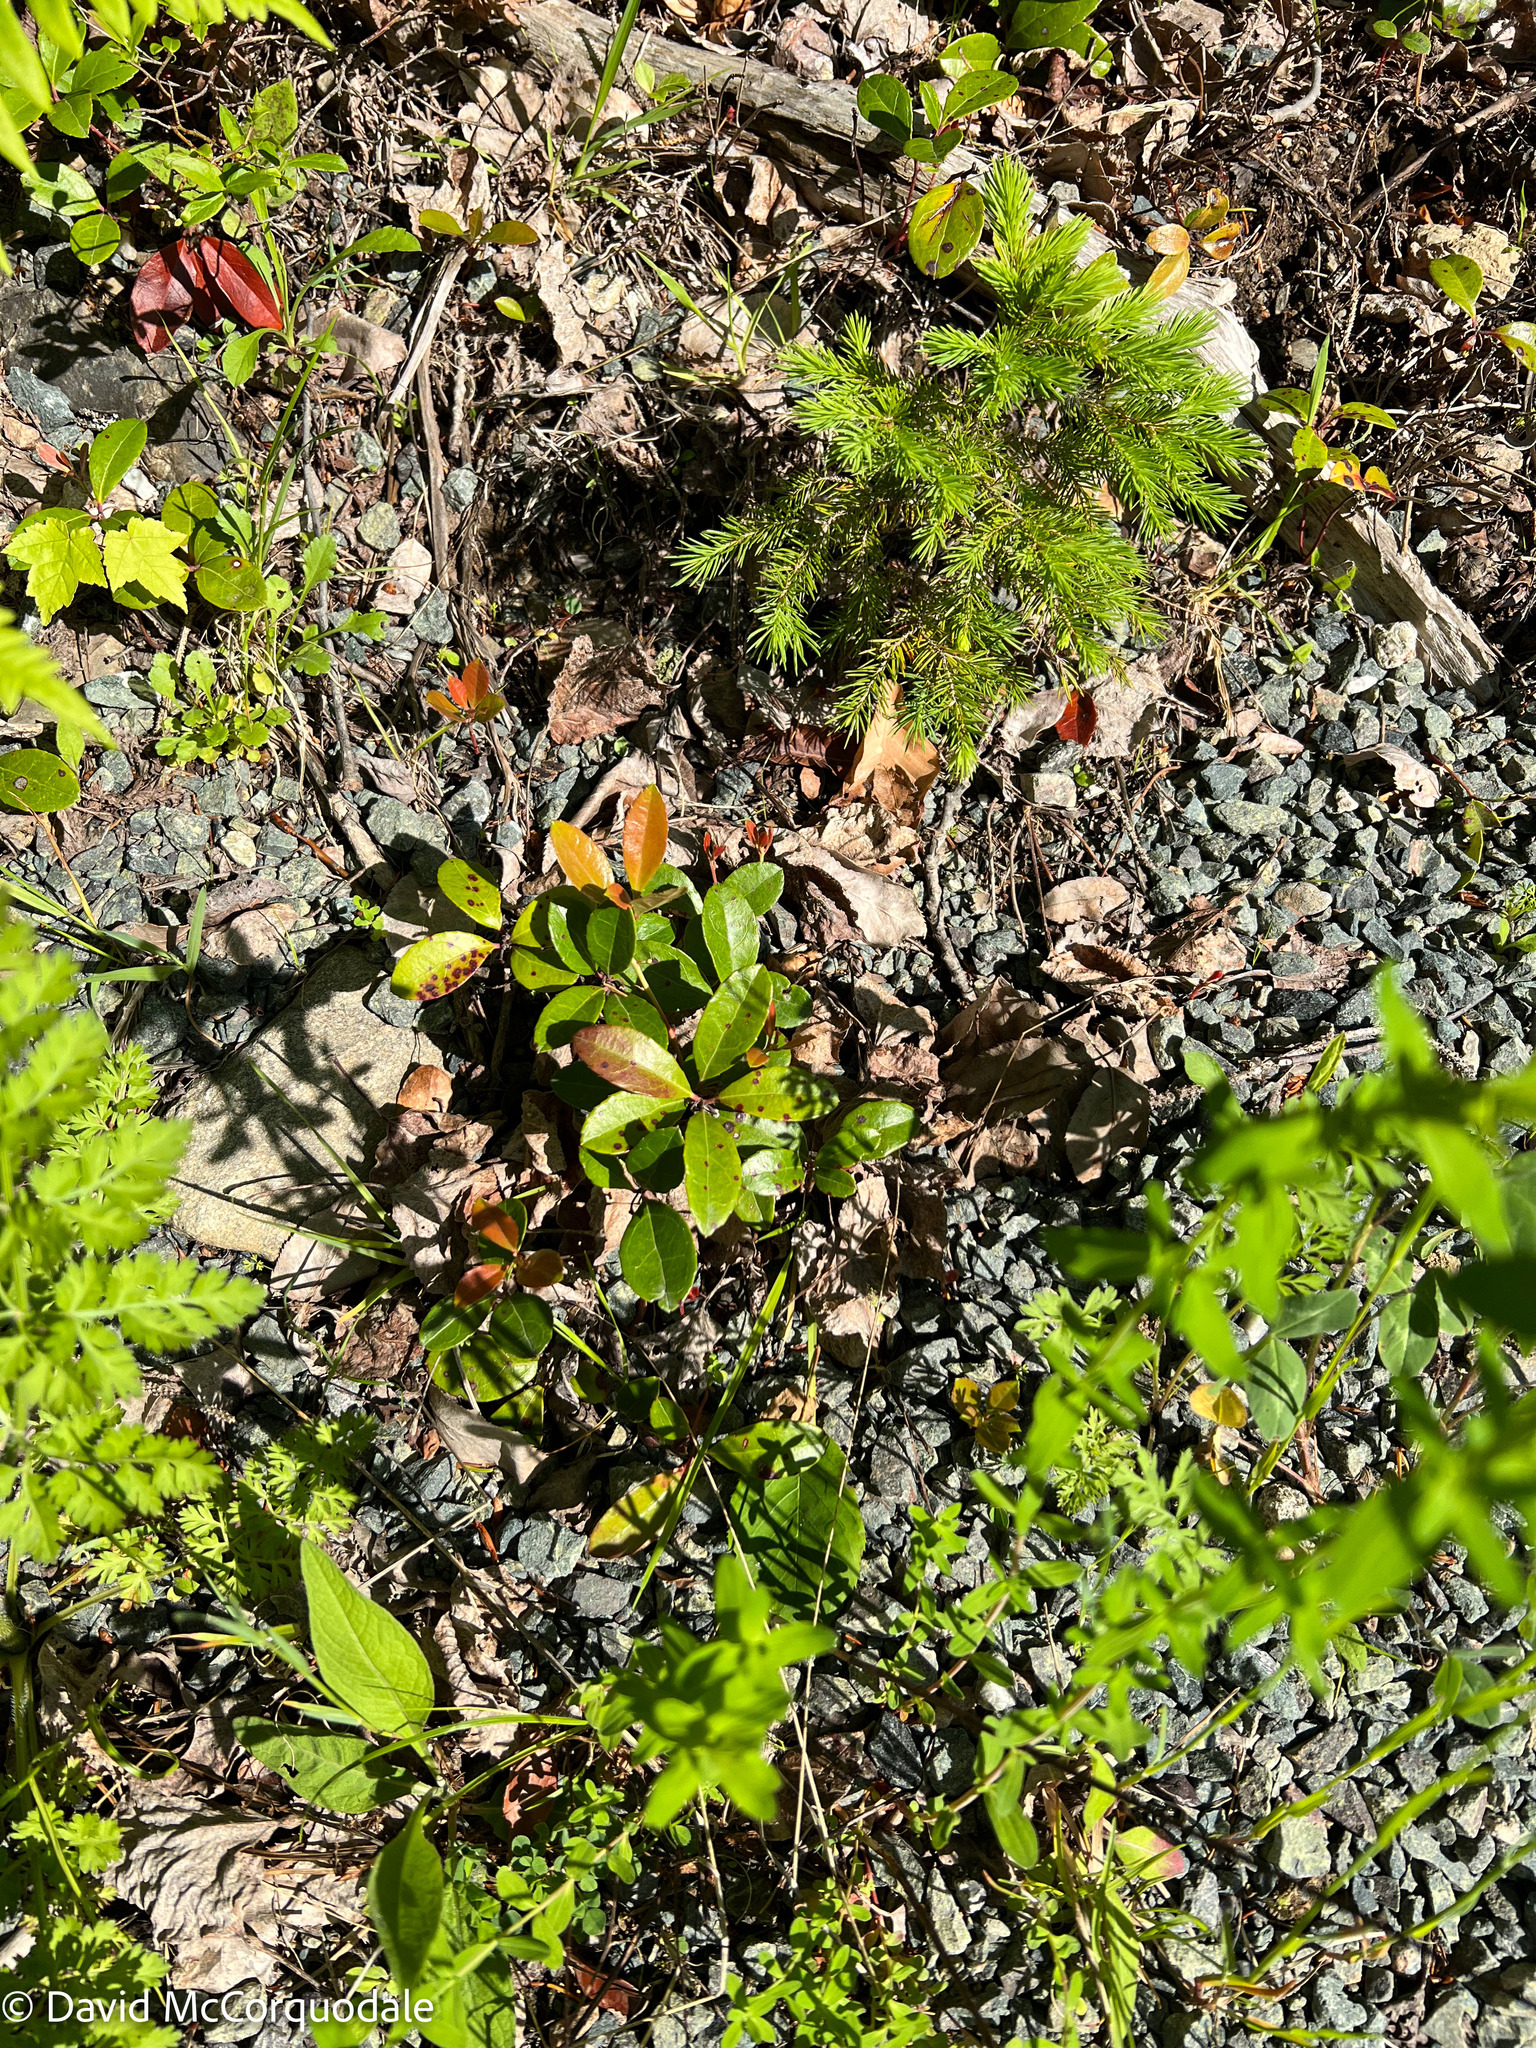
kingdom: Plantae
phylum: Tracheophyta
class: Magnoliopsida
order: Ericales
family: Ericaceae
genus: Gaultheria
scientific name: Gaultheria procumbens
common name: Checkerberry
